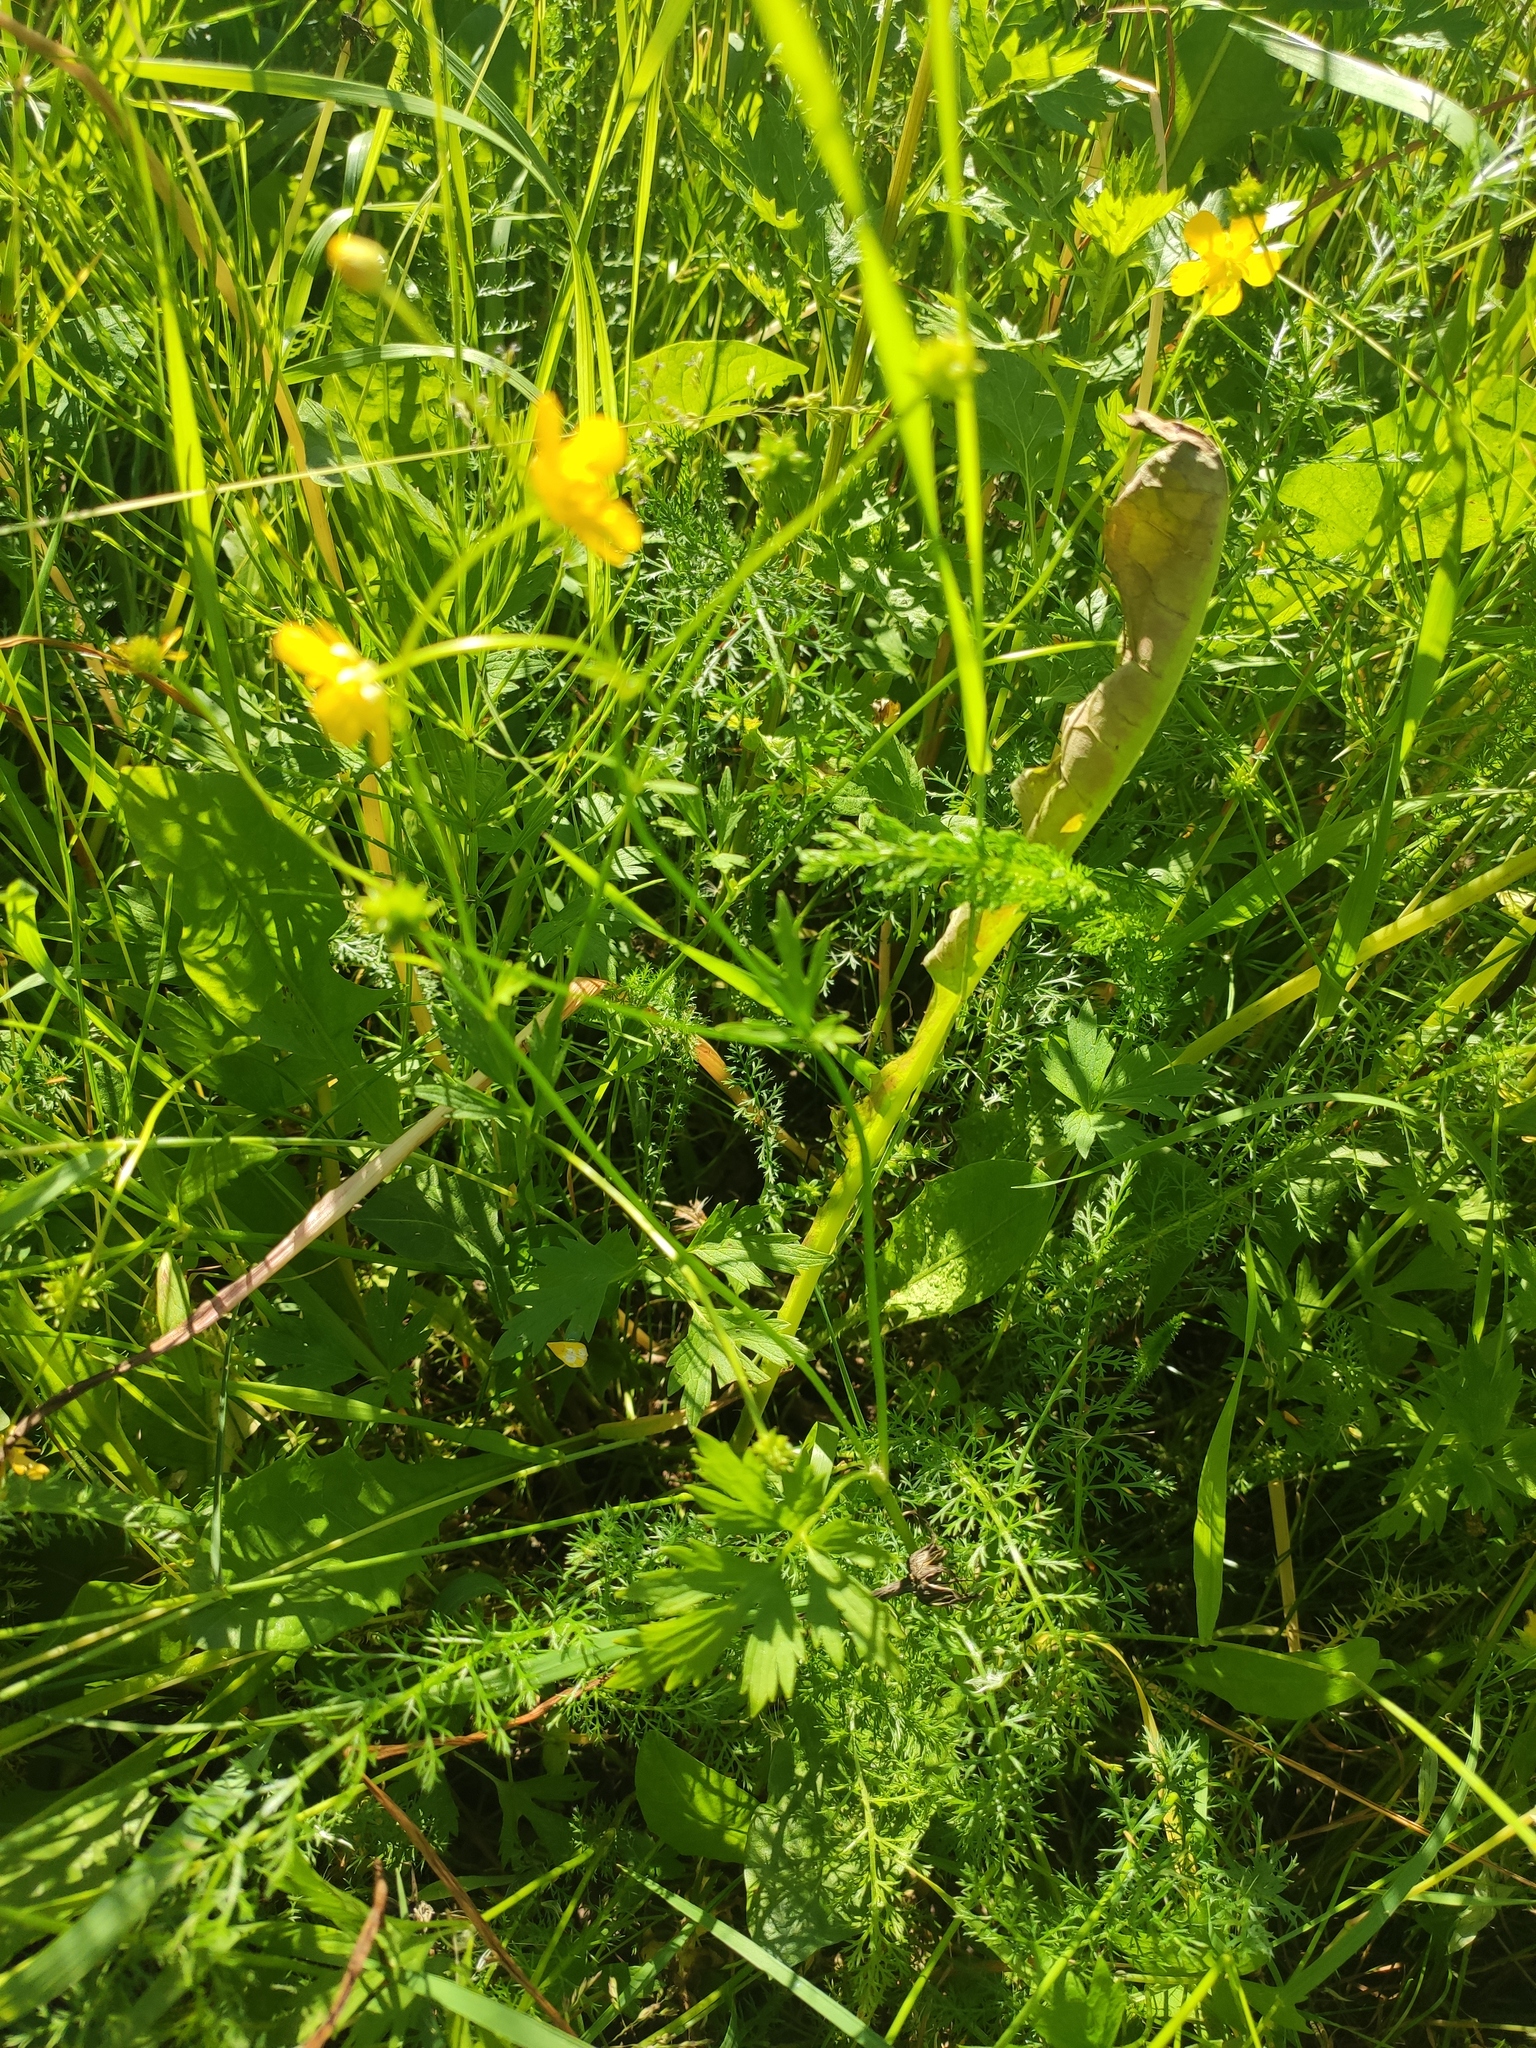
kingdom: Plantae
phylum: Tracheophyta
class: Magnoliopsida
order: Ranunculales
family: Ranunculaceae
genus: Ranunculus
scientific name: Ranunculus acris
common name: Meadow buttercup
